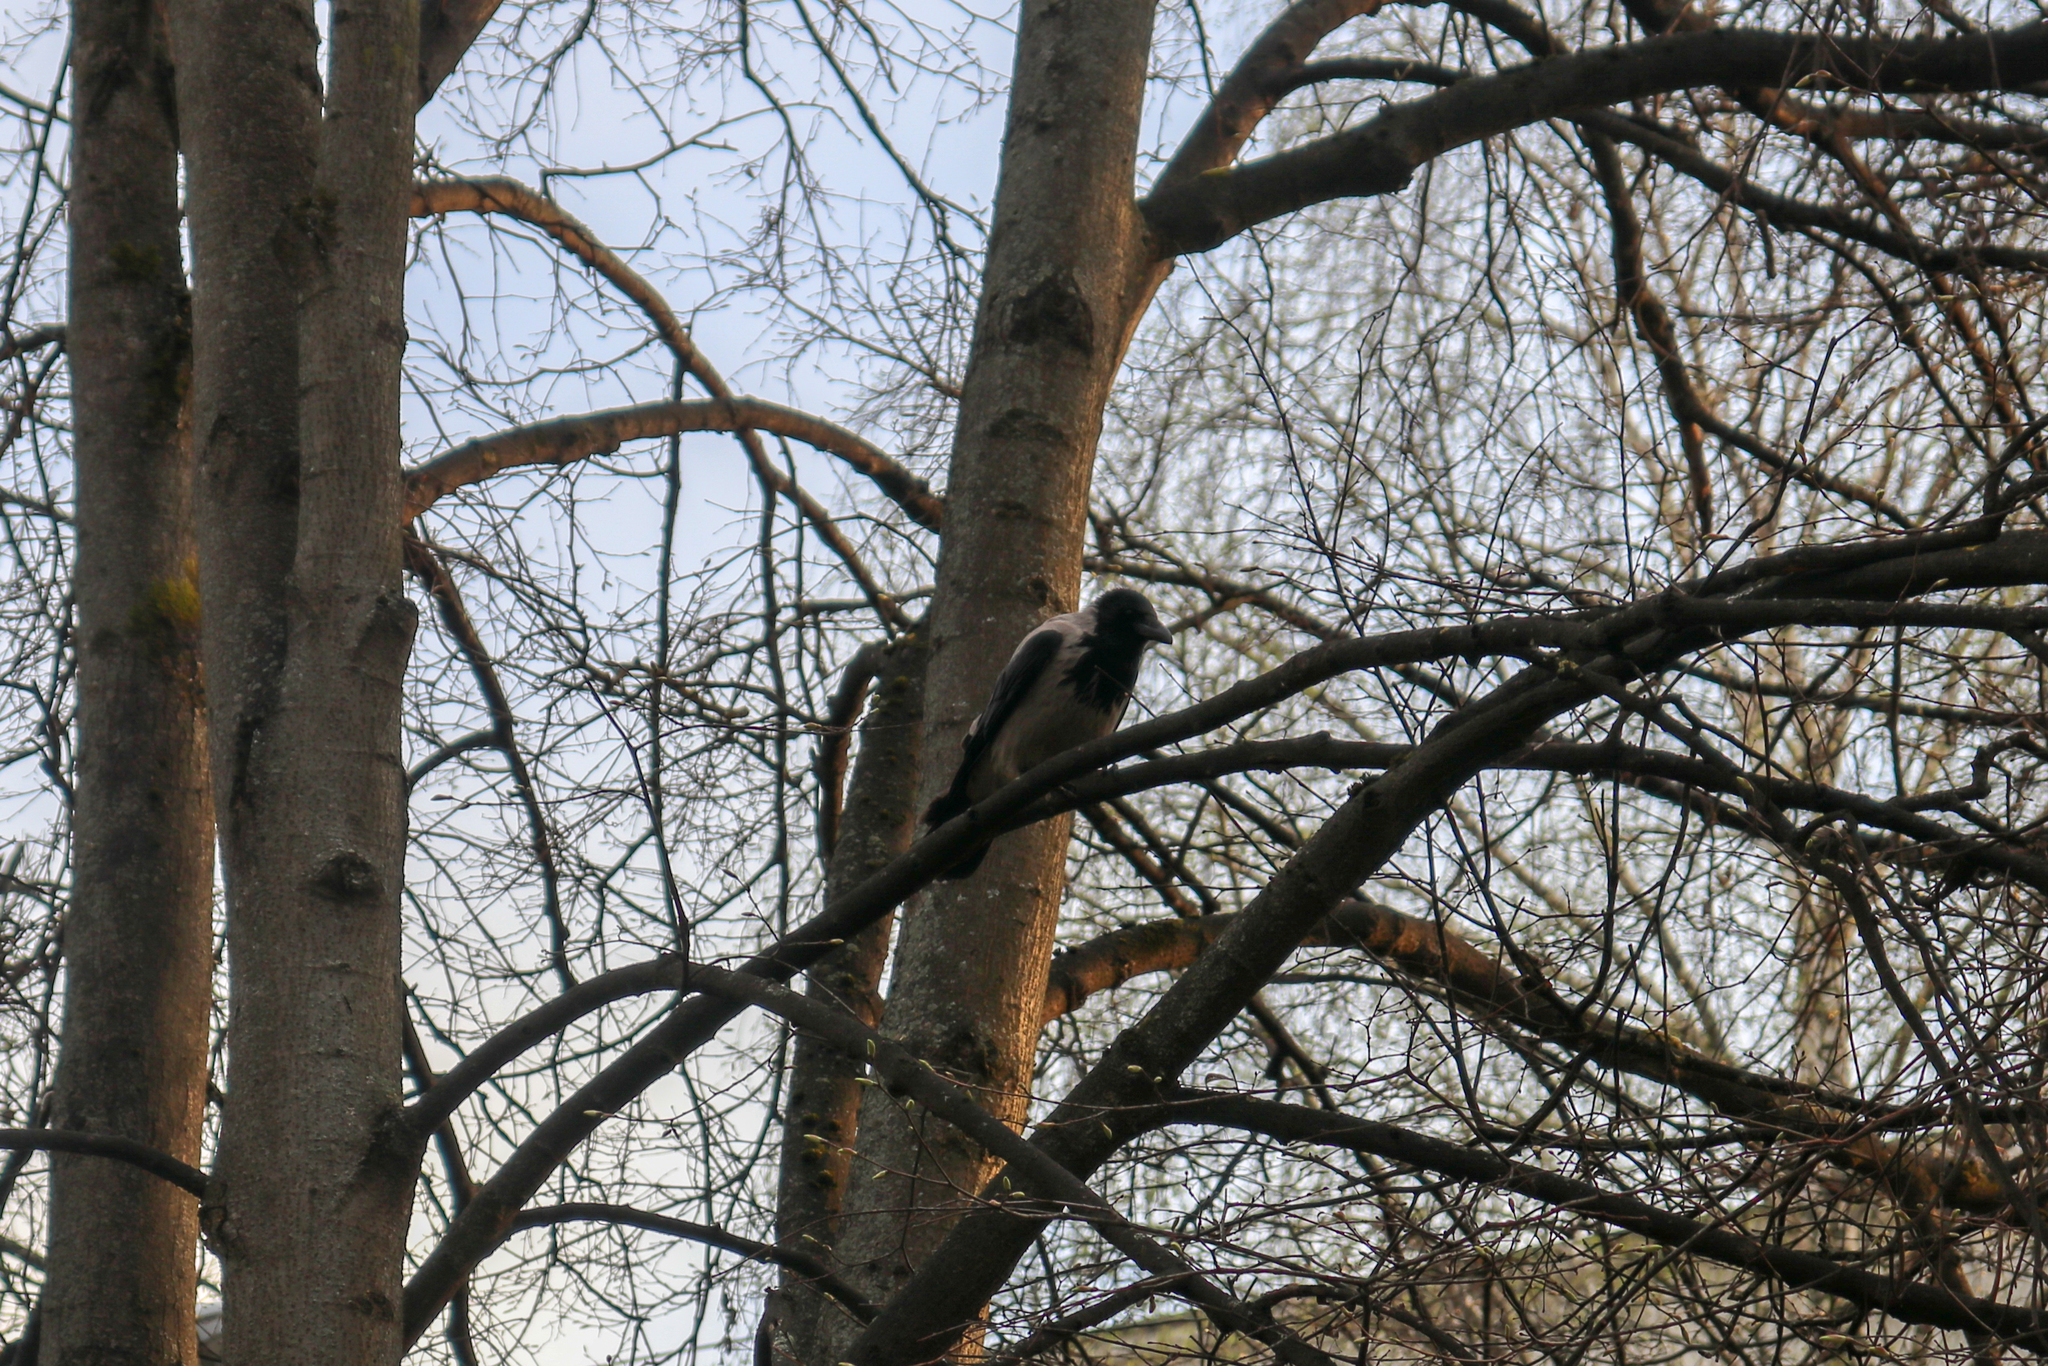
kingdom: Animalia
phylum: Chordata
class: Aves
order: Passeriformes
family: Corvidae
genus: Corvus
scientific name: Corvus cornix
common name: Hooded crow
